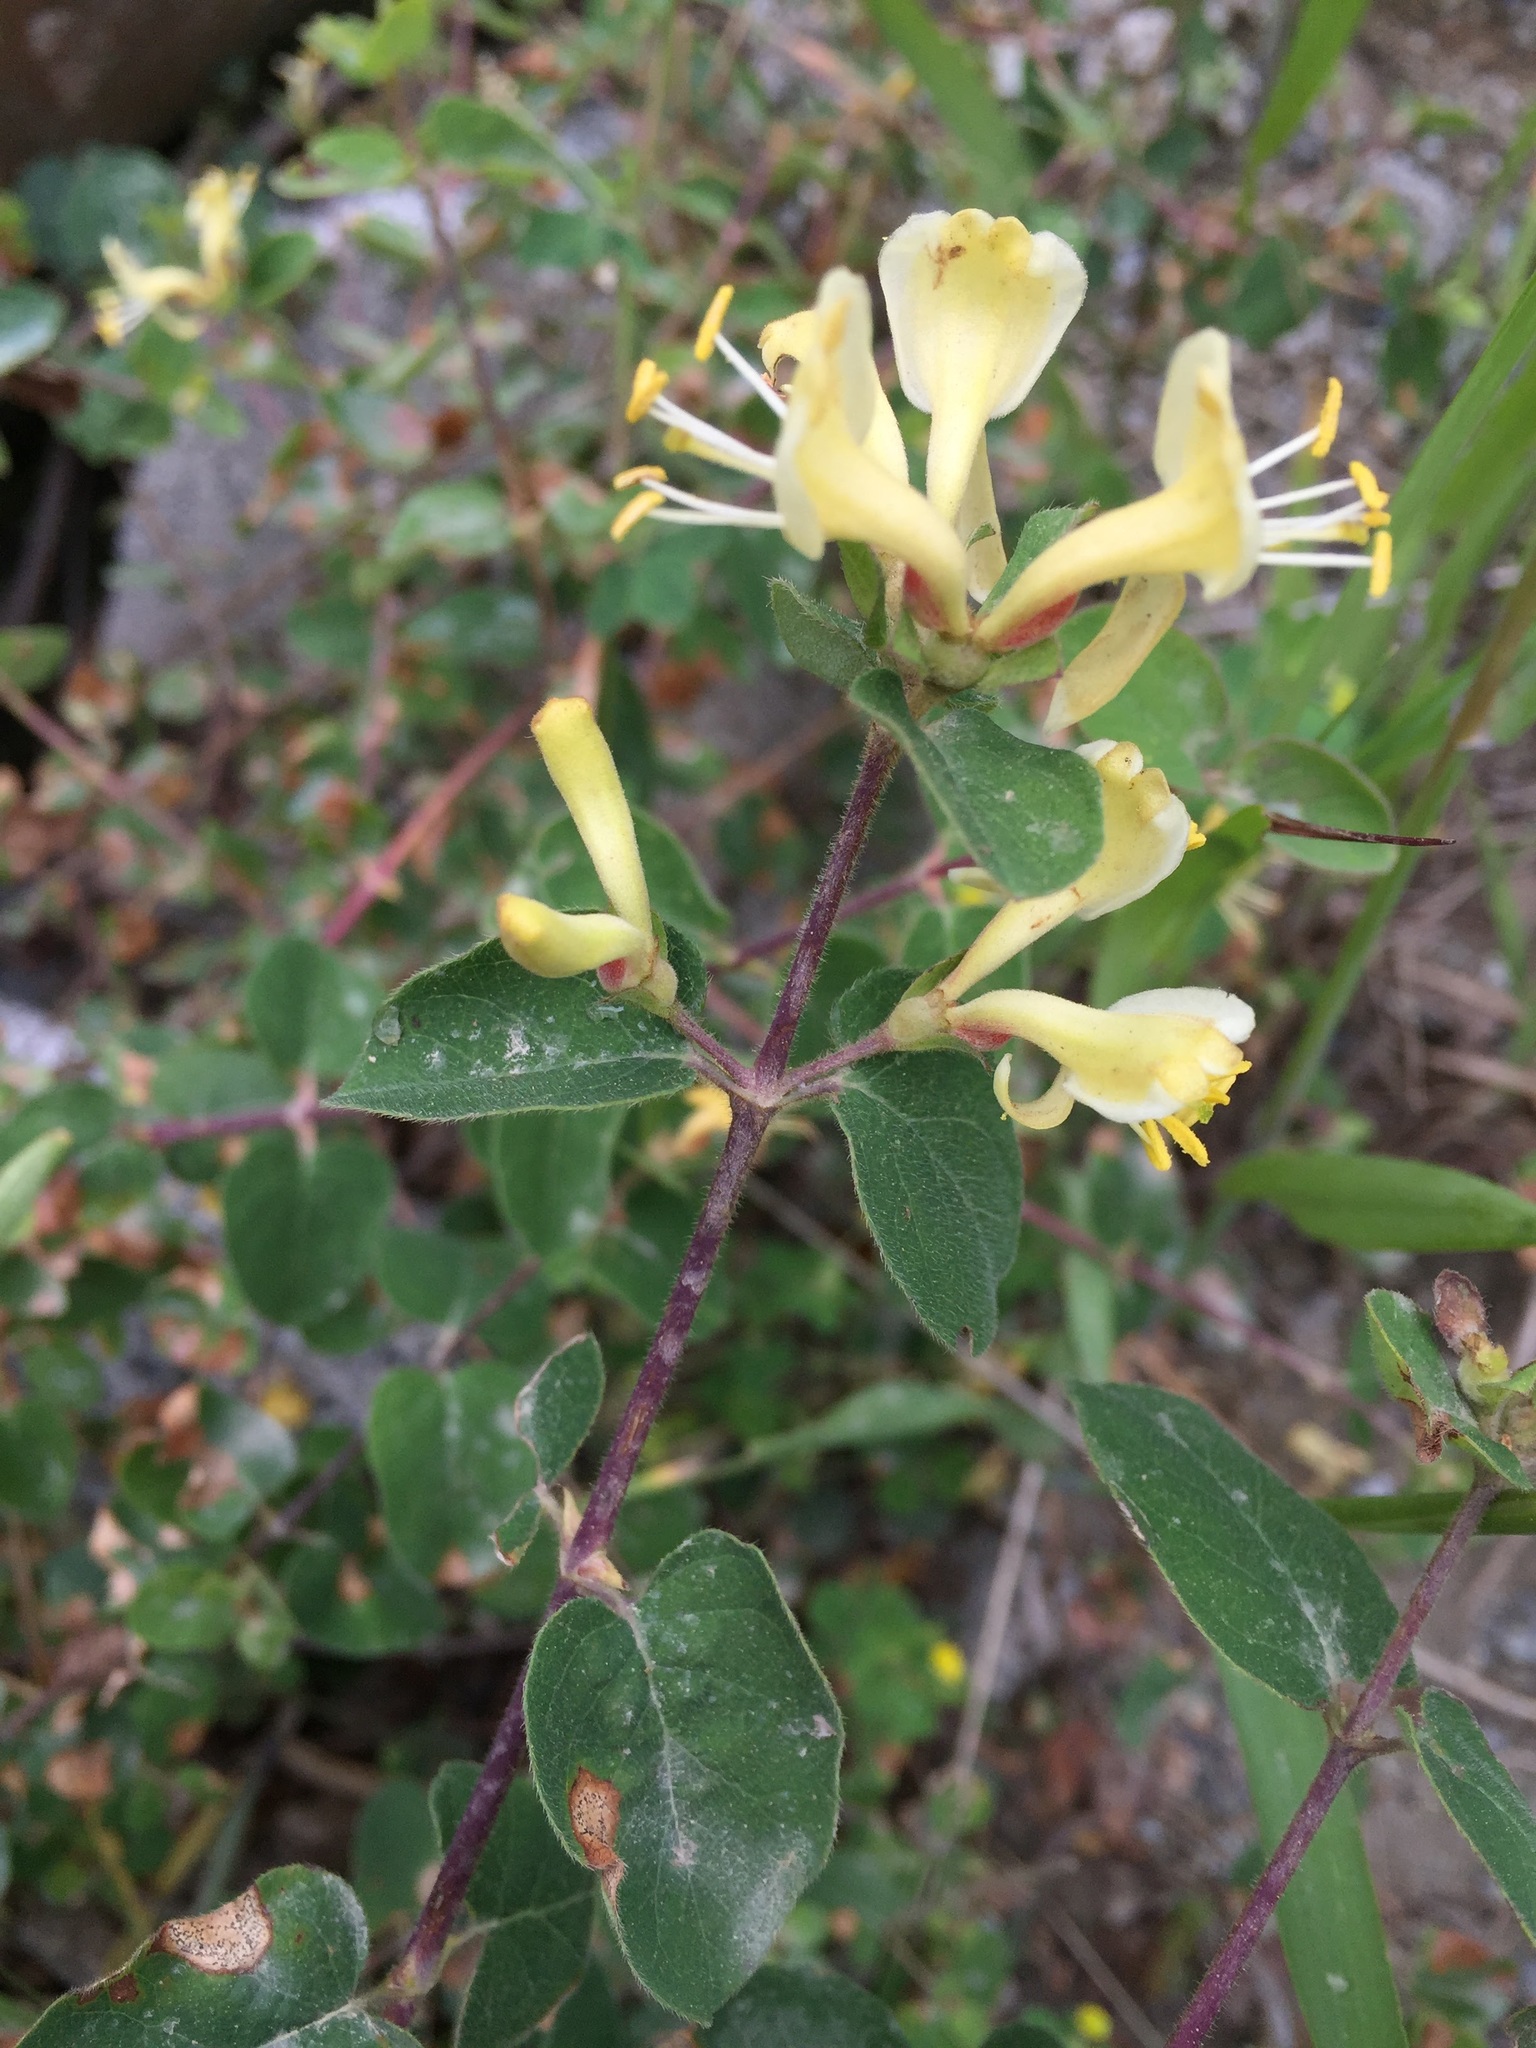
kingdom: Plantae
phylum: Tracheophyta
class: Magnoliopsida
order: Dipsacales
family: Caprifoliaceae
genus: Lonicera
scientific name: Lonicera caucasica
